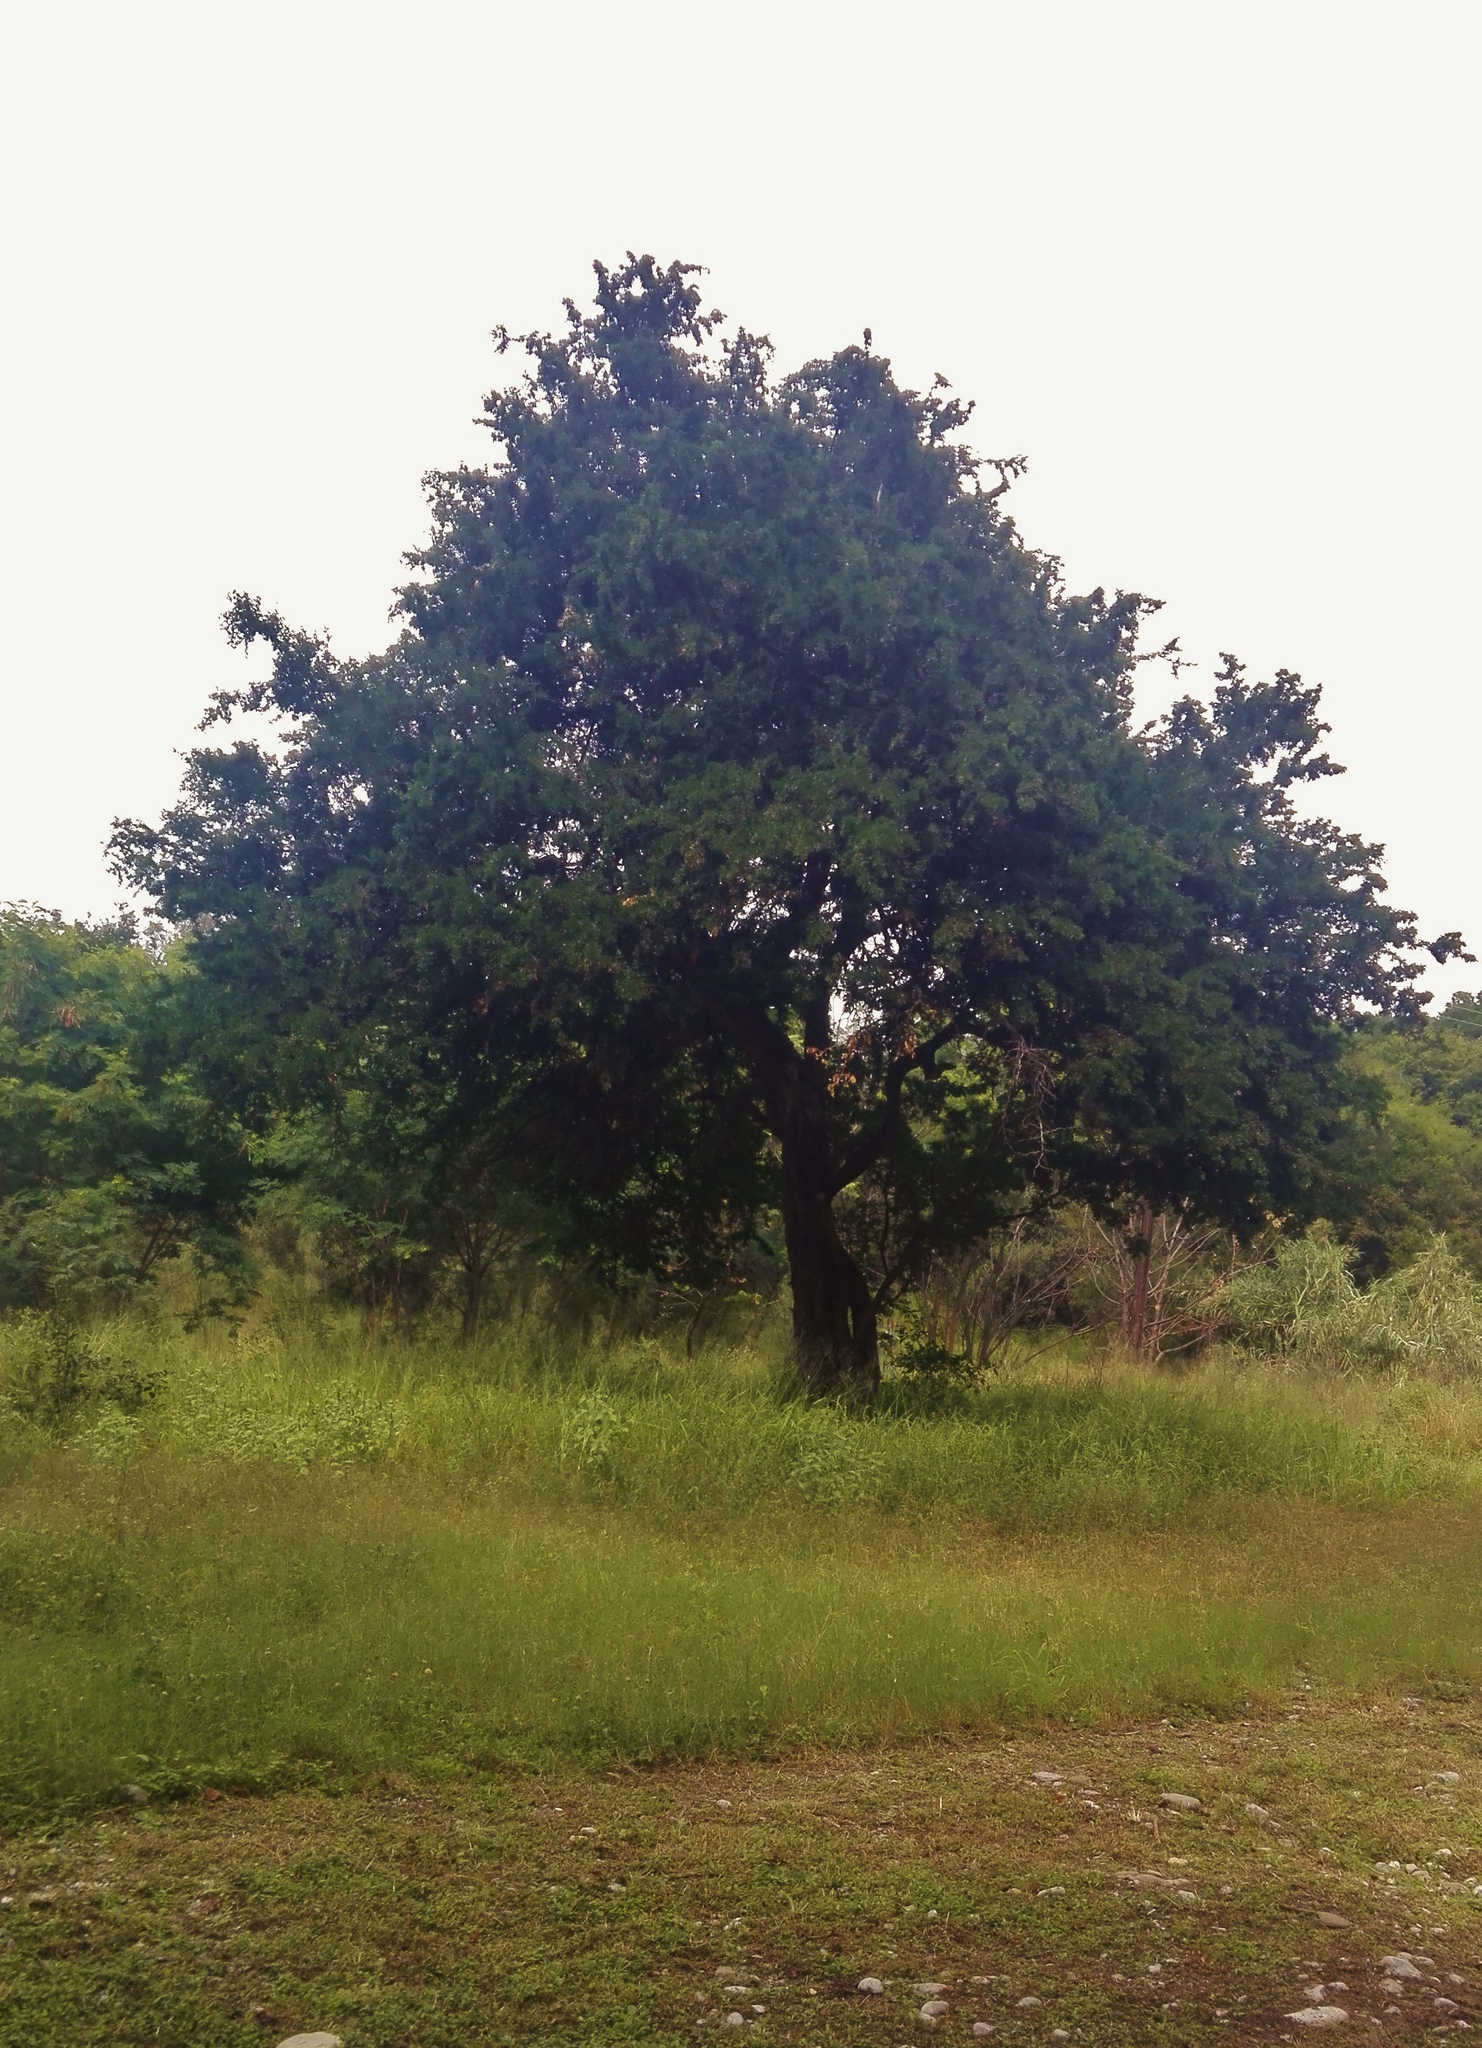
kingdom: Plantae
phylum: Tracheophyta
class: Magnoliopsida
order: Fabales
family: Fabaceae
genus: Ebenopsis
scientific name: Ebenopsis ebano
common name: Ebony blackbead
